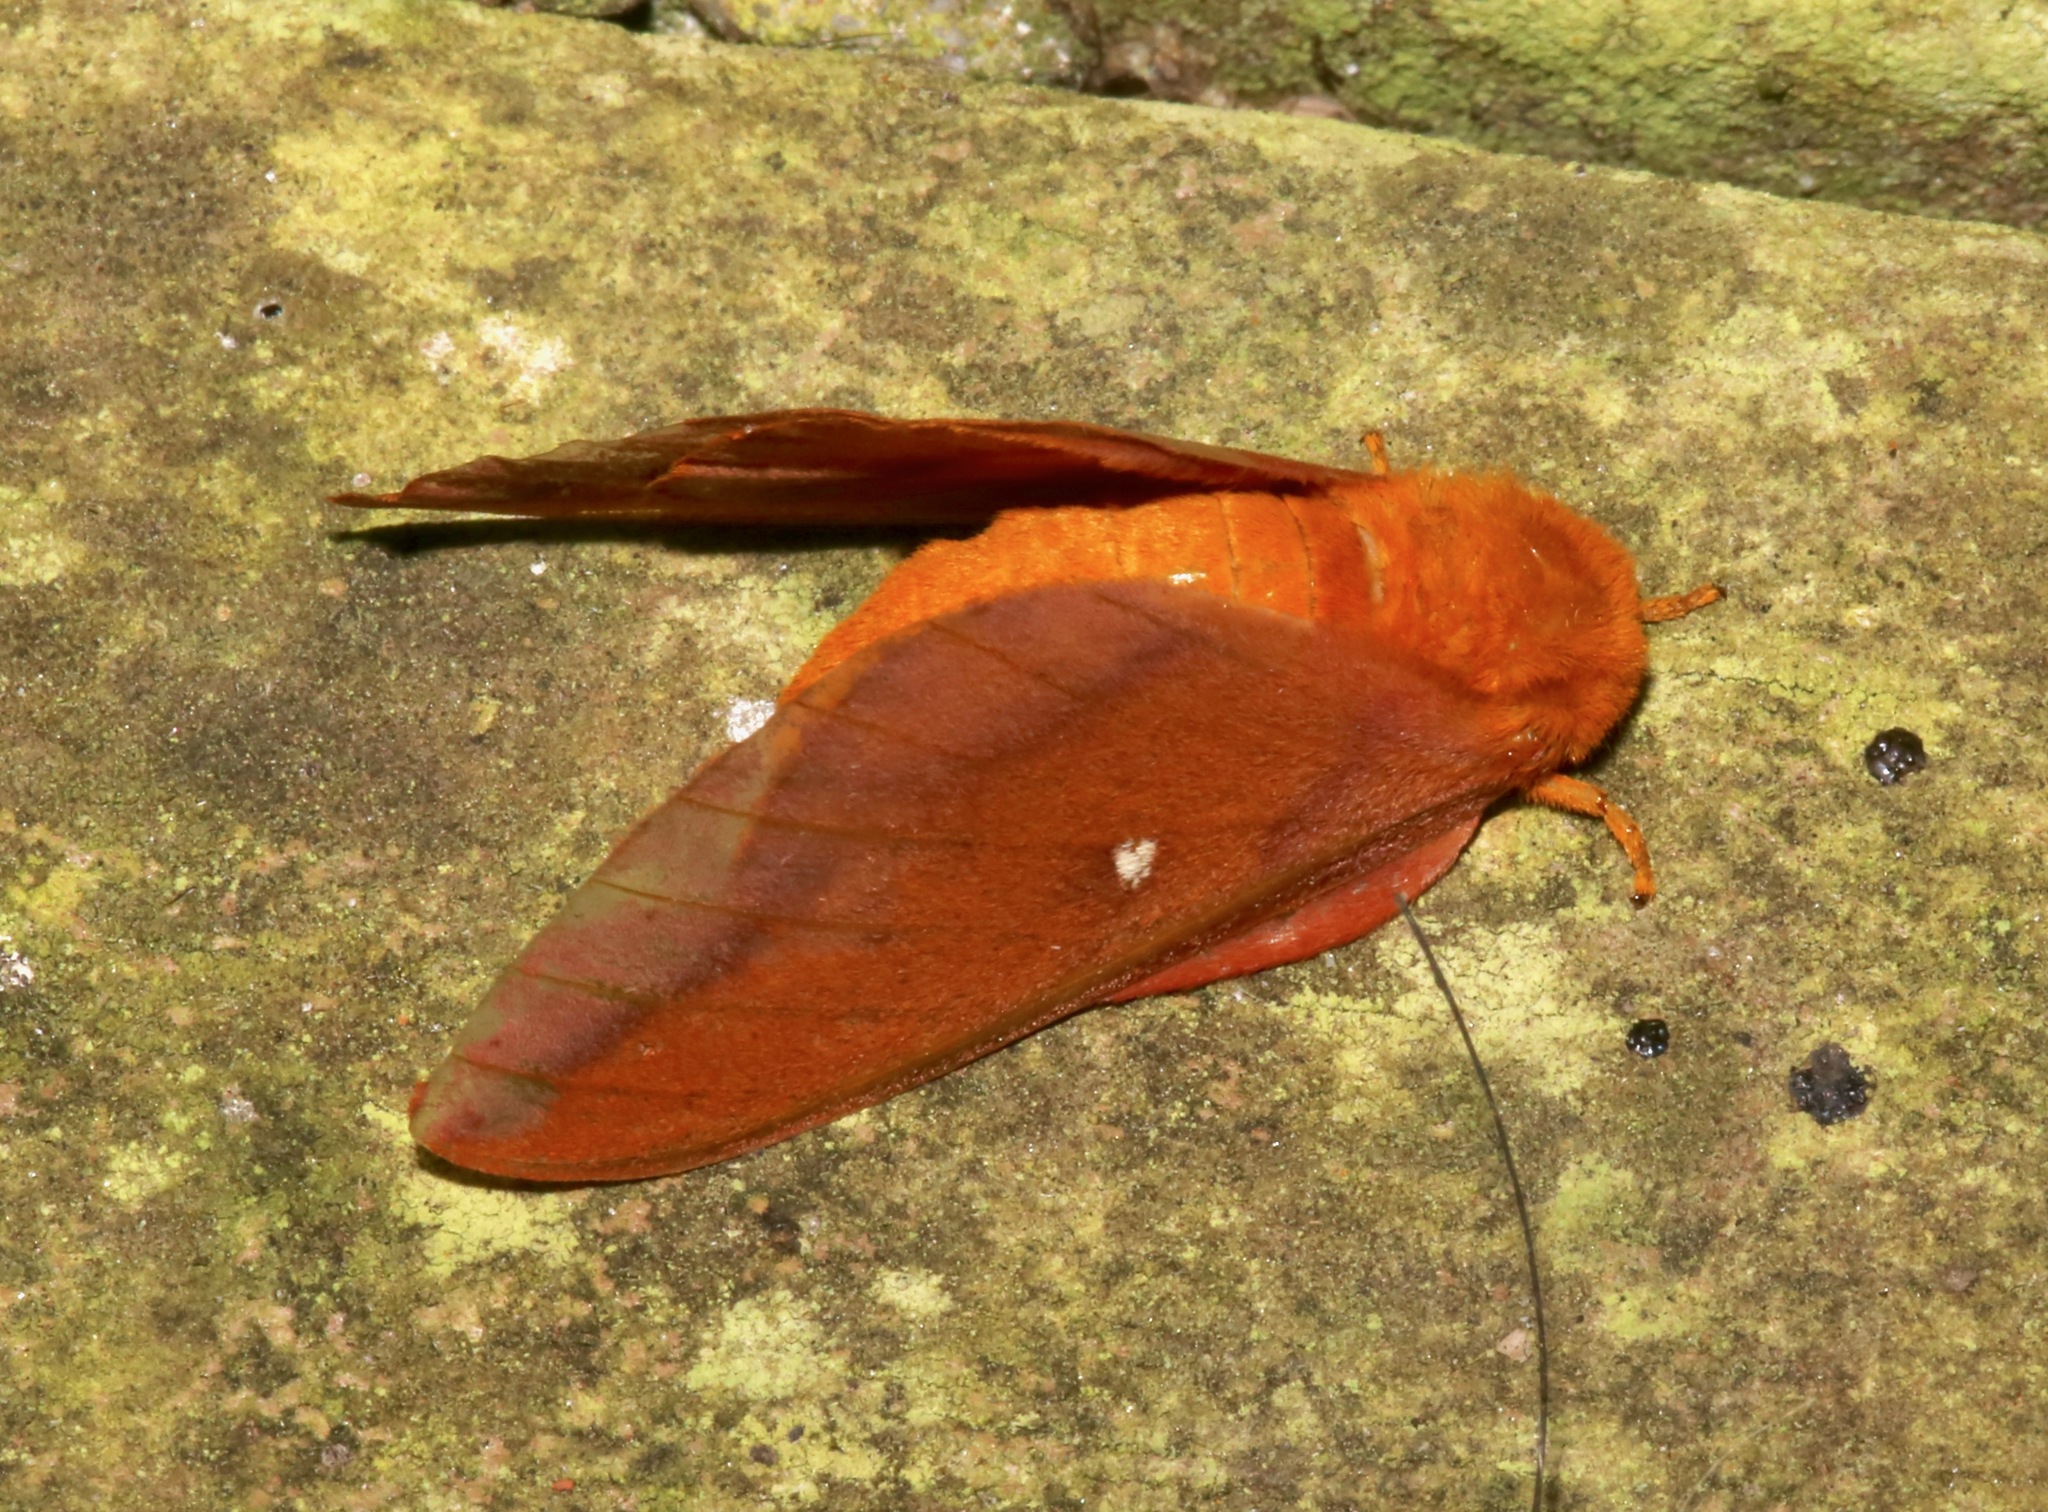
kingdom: Animalia
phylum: Arthropoda
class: Insecta
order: Lepidoptera
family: Saturniidae
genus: Anisota
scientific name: Anisota virginiensis
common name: Pink striped oakworm moth
